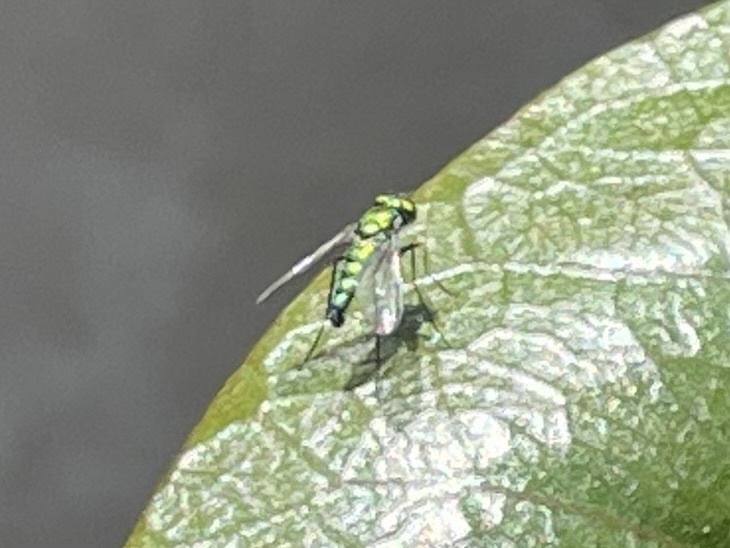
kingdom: Animalia
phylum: Arthropoda
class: Insecta
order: Diptera
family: Dolichopodidae
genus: Condylostylus
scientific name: Condylostylus longicornis
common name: Long-legged fly
